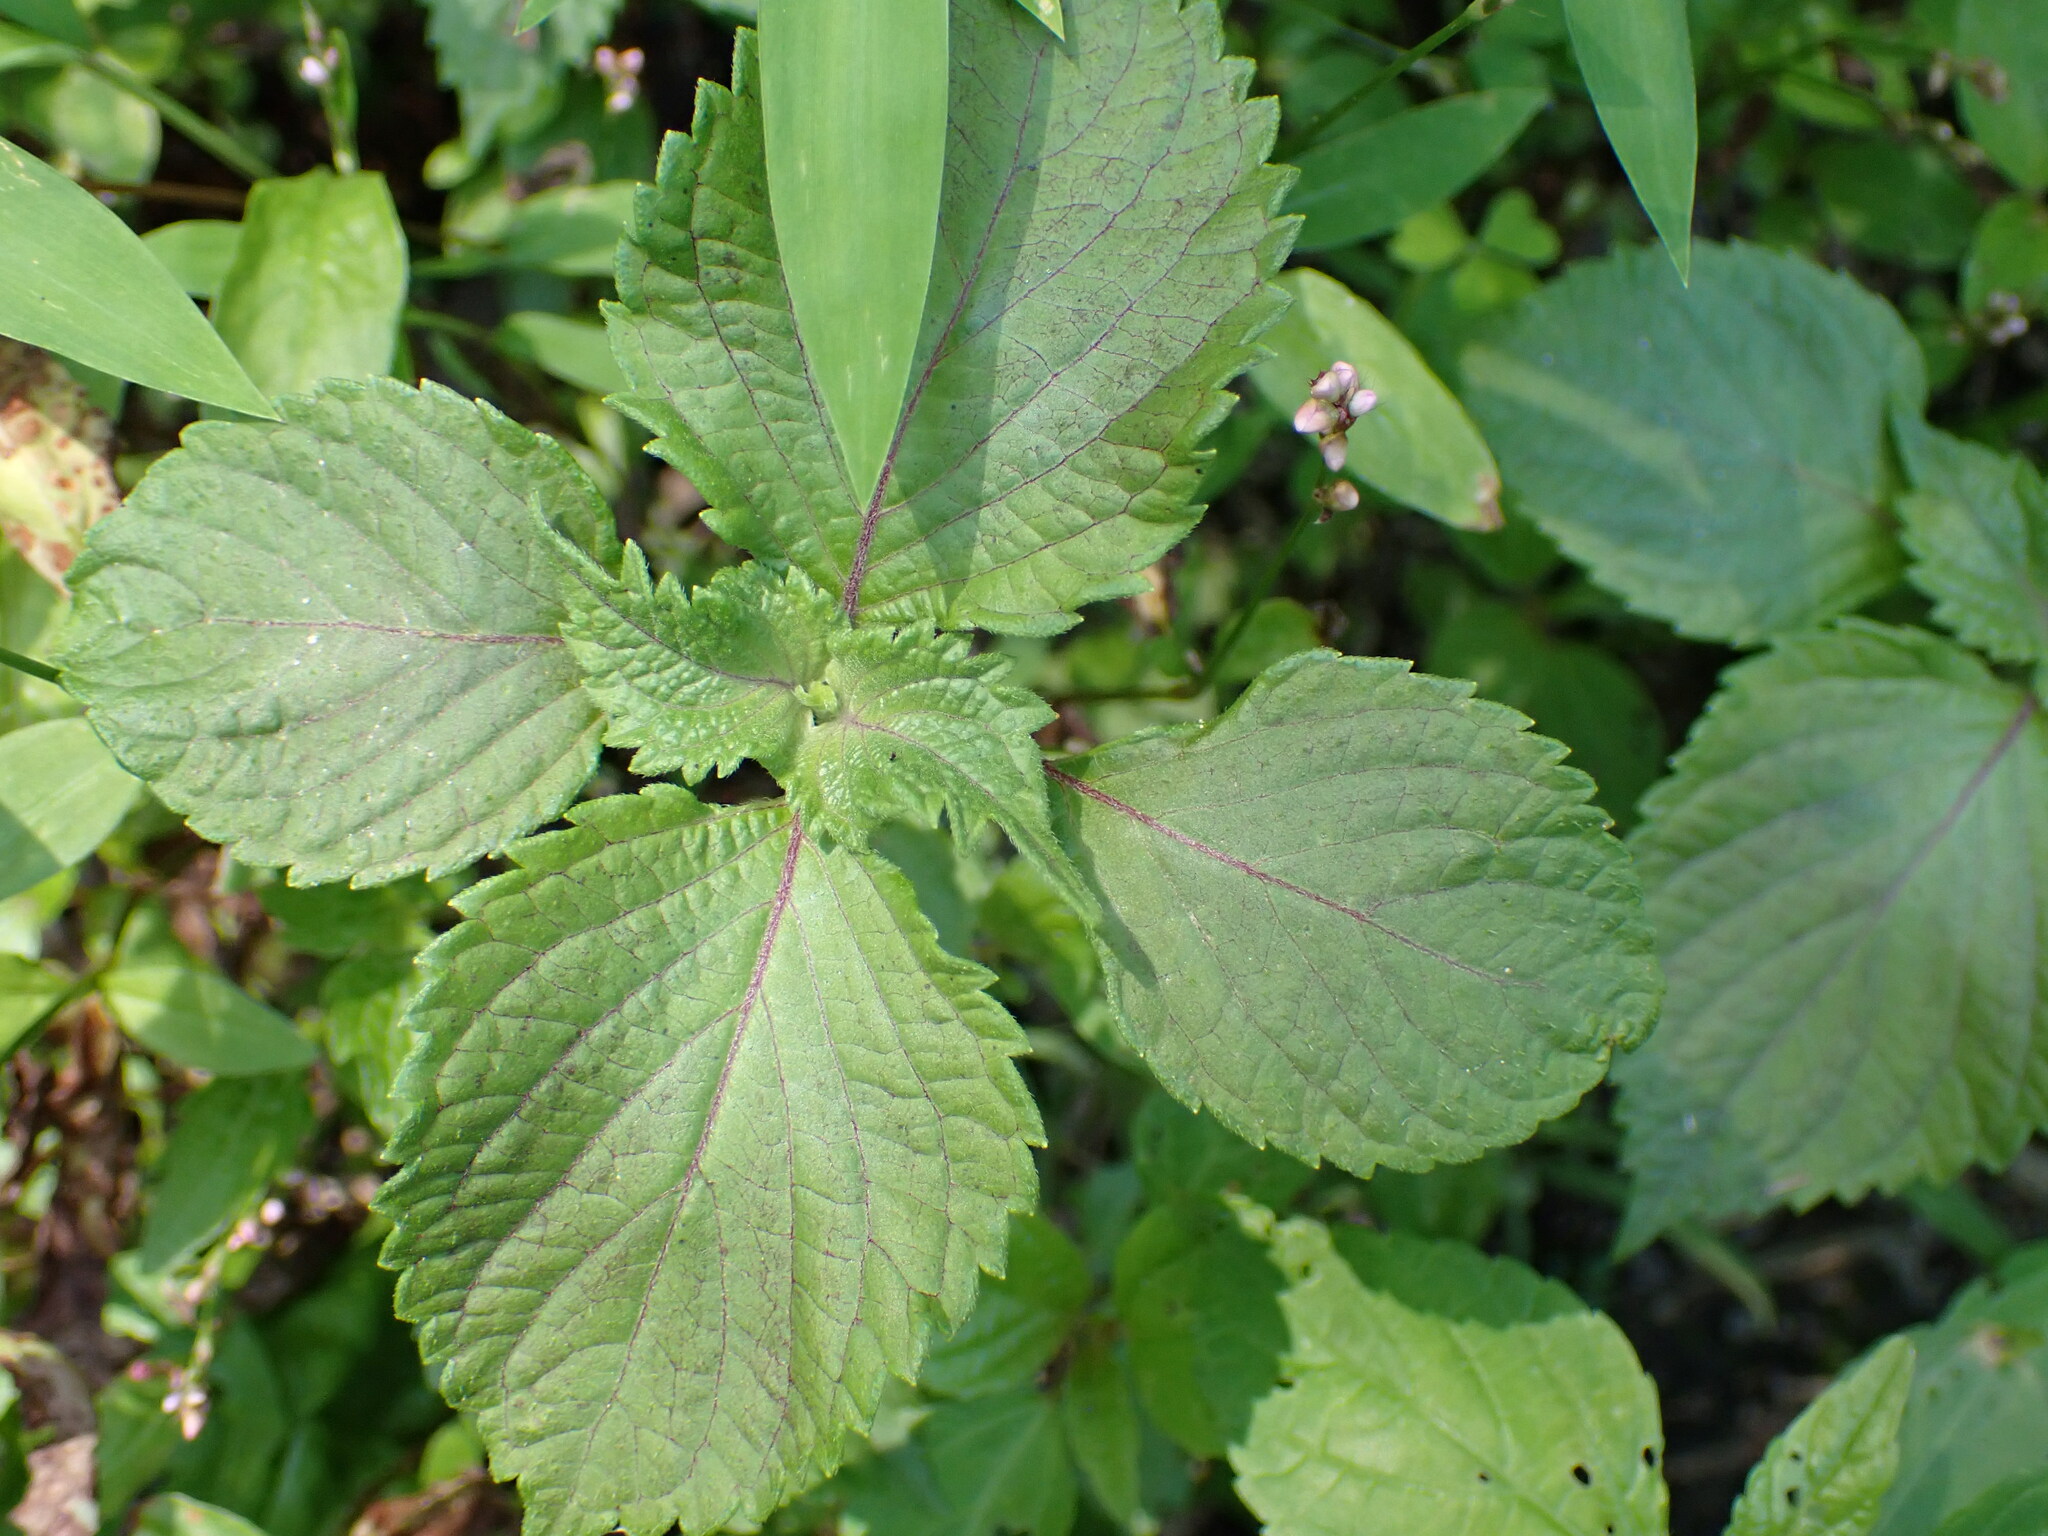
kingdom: Plantae
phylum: Tracheophyta
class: Magnoliopsida
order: Lamiales
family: Lamiaceae
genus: Perilla
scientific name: Perilla frutescens
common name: Perilla
